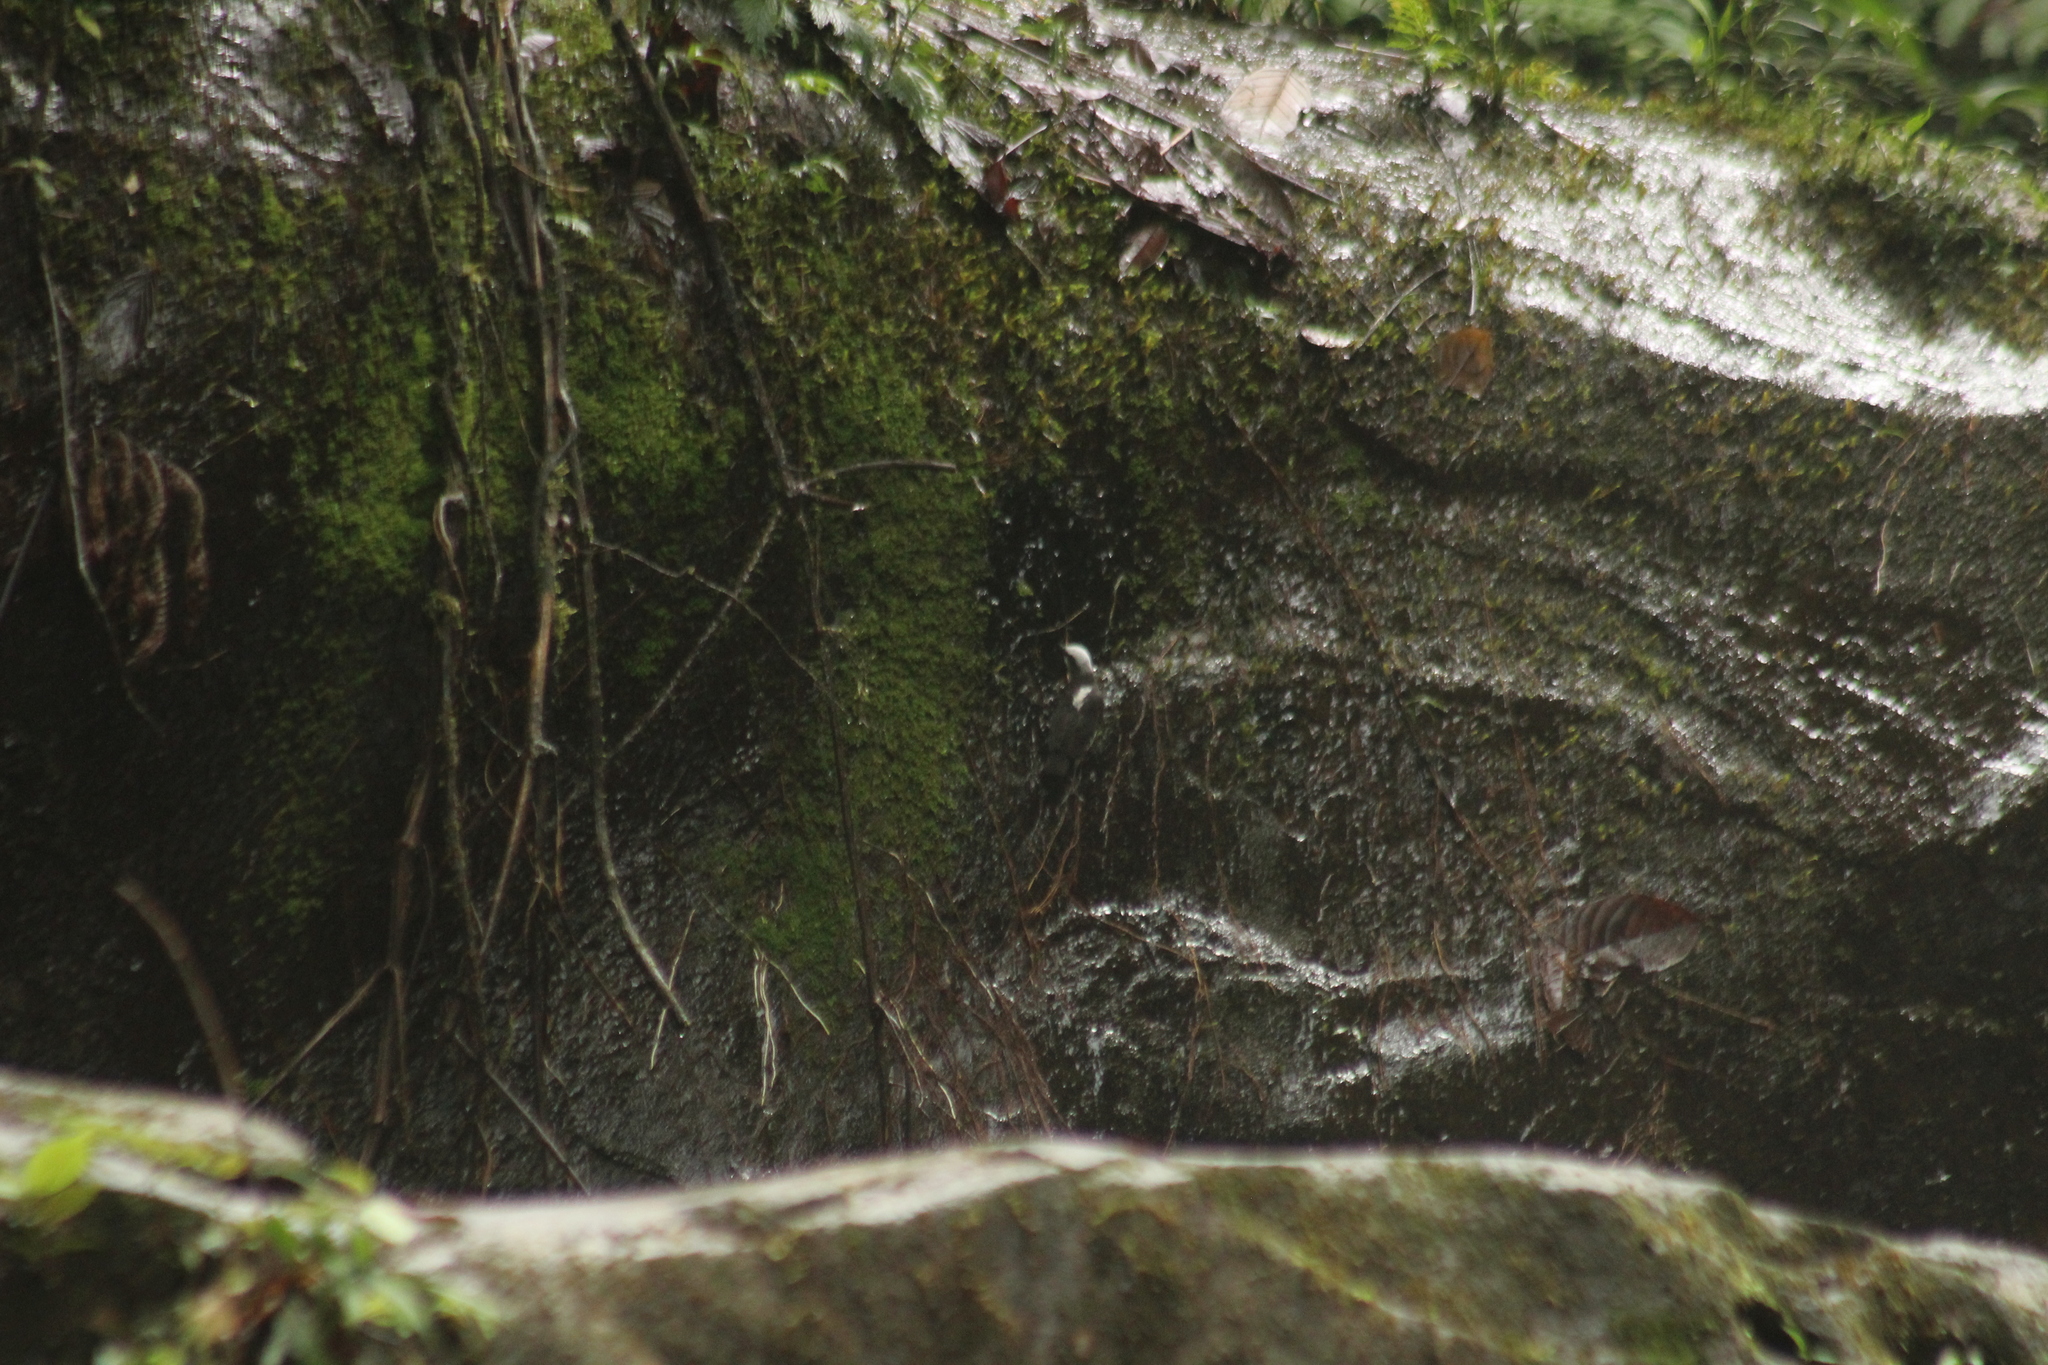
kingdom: Animalia
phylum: Chordata
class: Aves
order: Passeriformes
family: Cinclidae
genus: Cinclus
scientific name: Cinclus leucocephalus
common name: White-capped dipper
